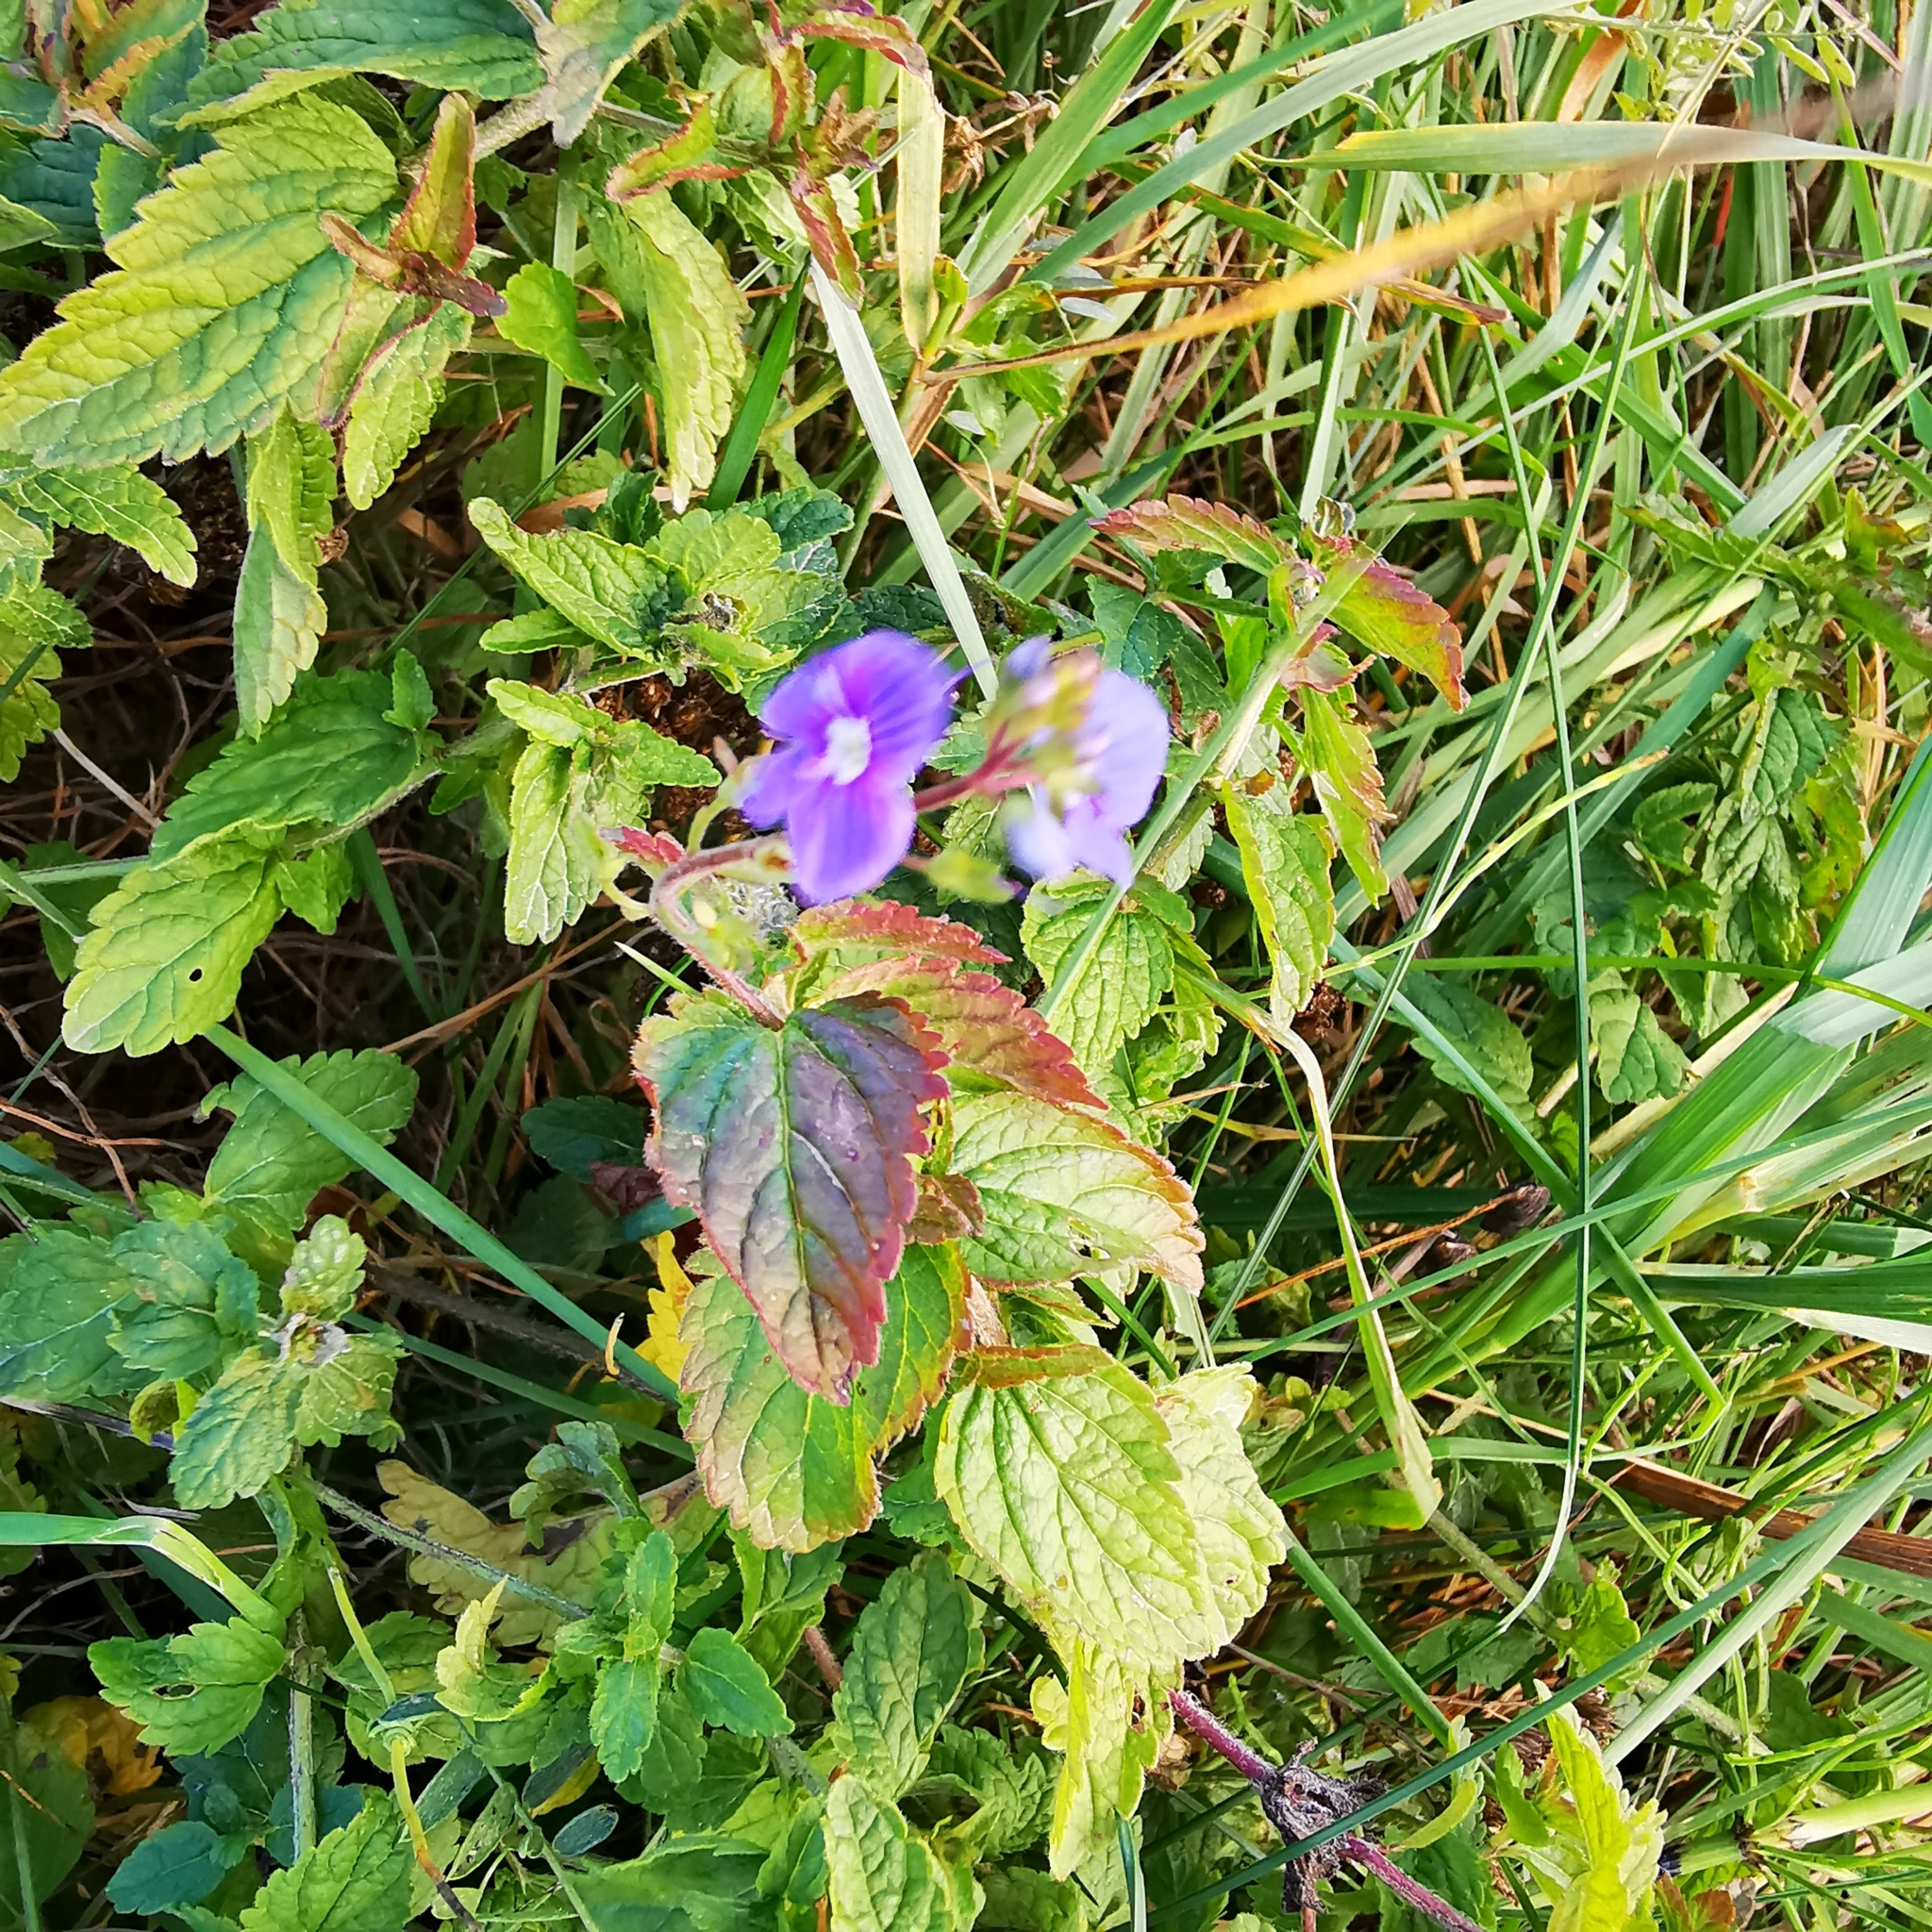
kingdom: Plantae
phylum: Tracheophyta
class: Magnoliopsida
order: Lamiales
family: Plantaginaceae
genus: Veronica
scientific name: Veronica chamaedrys
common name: Germander speedwell
